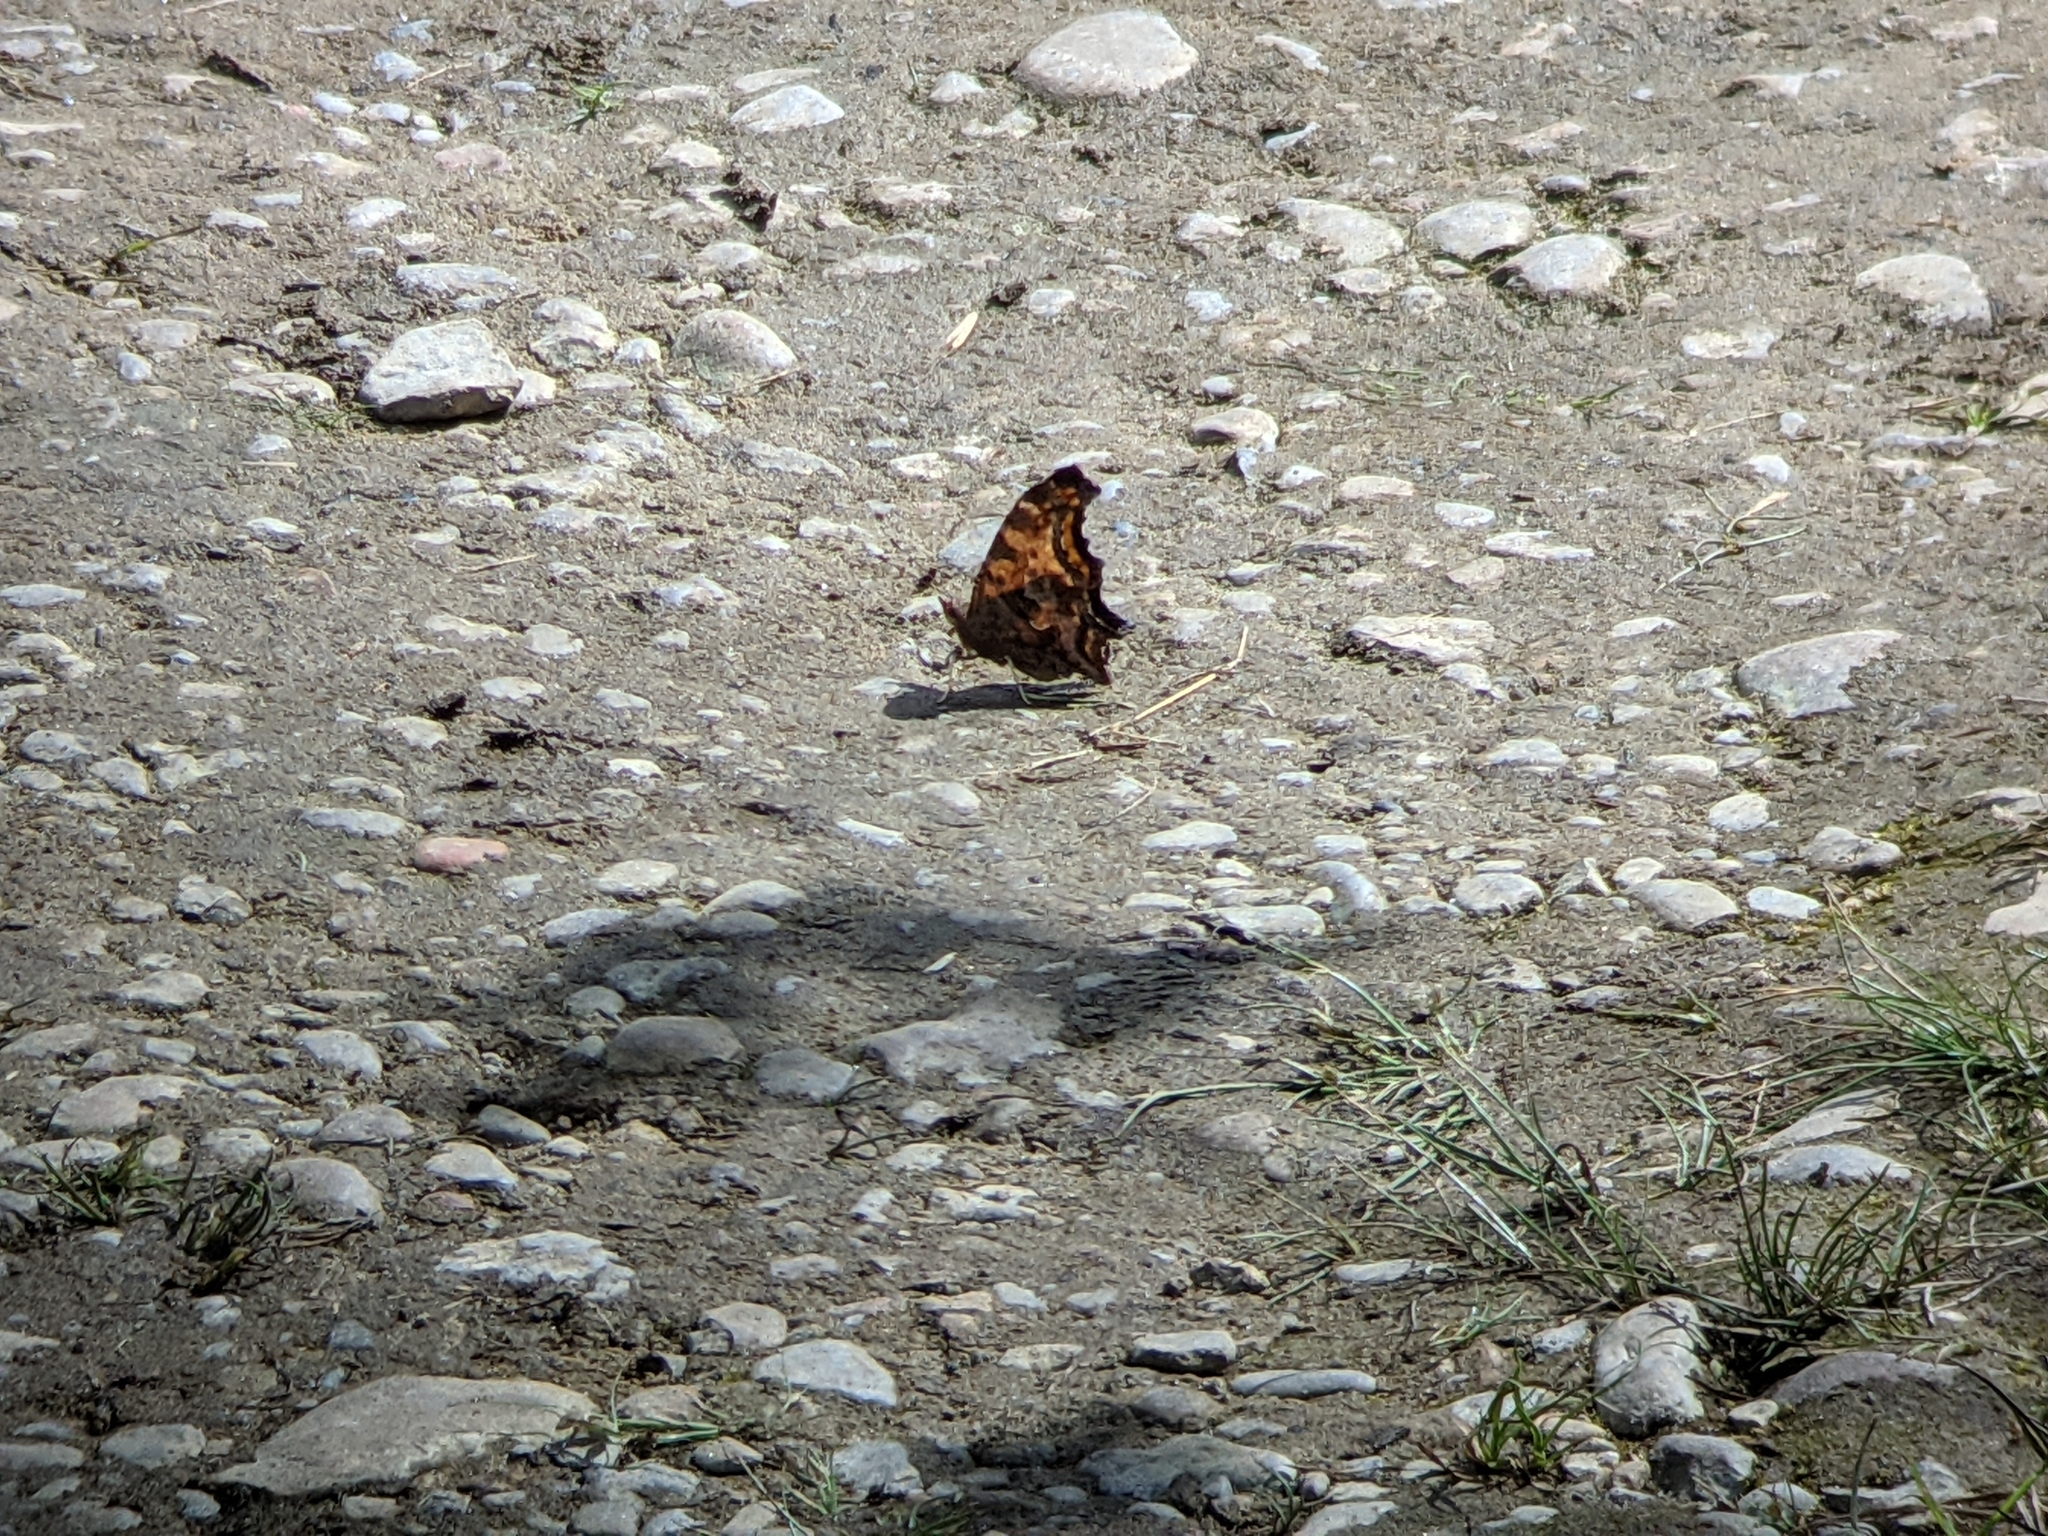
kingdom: Animalia
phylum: Arthropoda
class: Insecta
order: Lepidoptera
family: Nymphalidae
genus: Polygonia
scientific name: Polygonia comma
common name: Eastern comma
